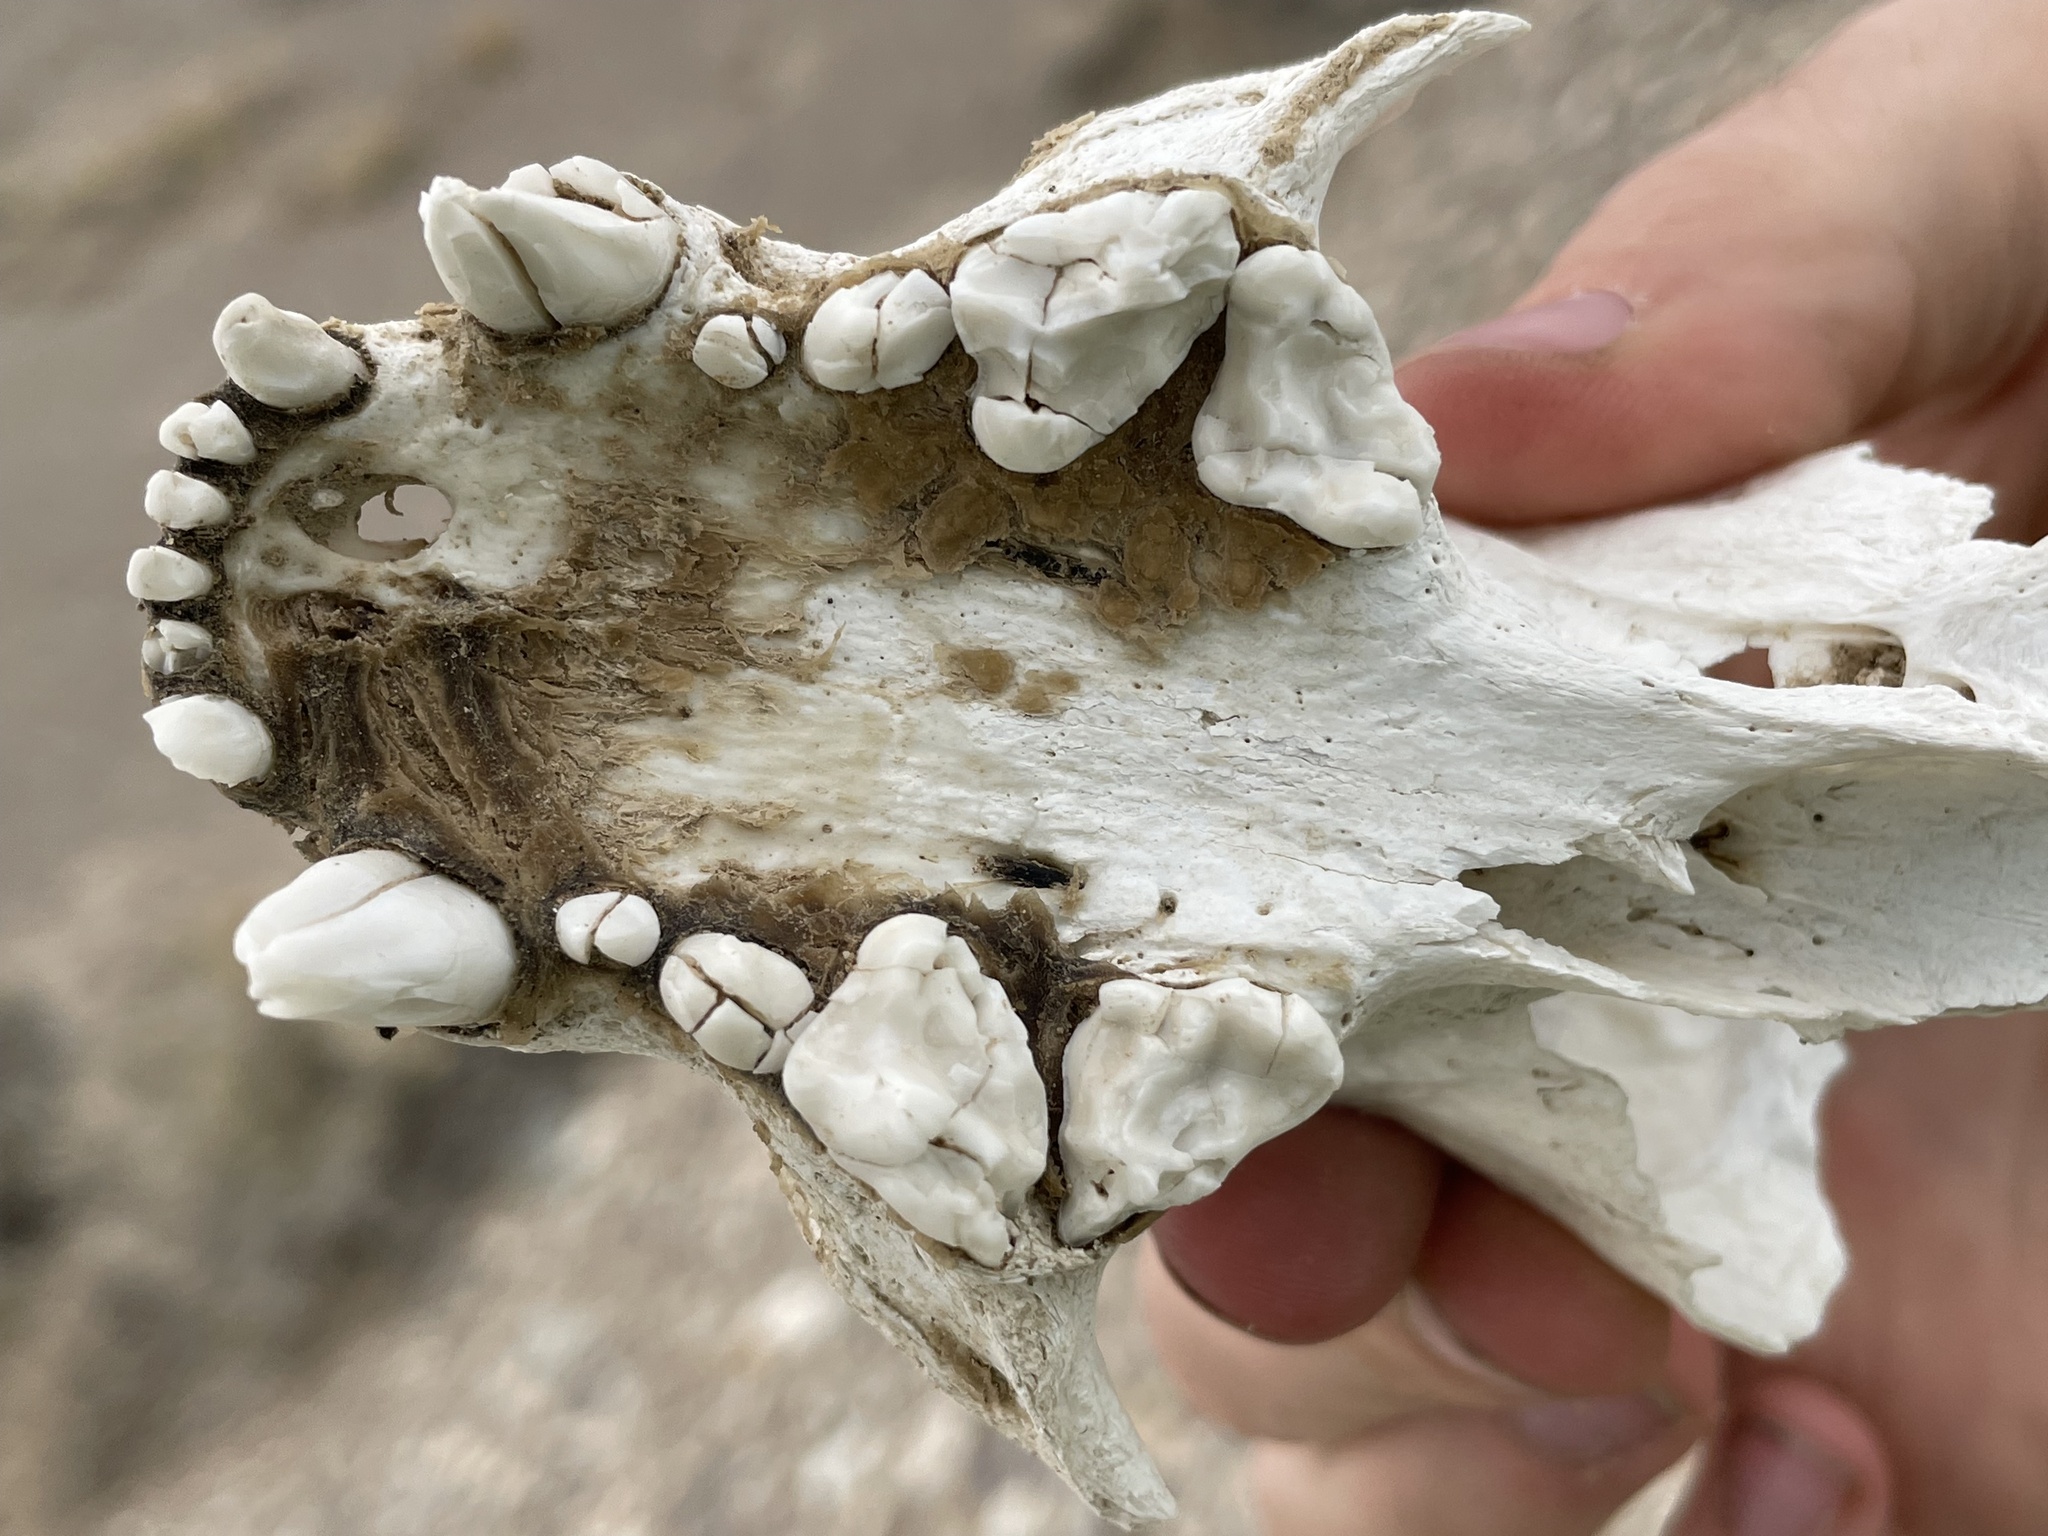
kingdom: Animalia
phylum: Chordata
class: Mammalia
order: Carnivora
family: Mustelidae
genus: Taxidea
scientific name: Taxidea taxus
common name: American badger
